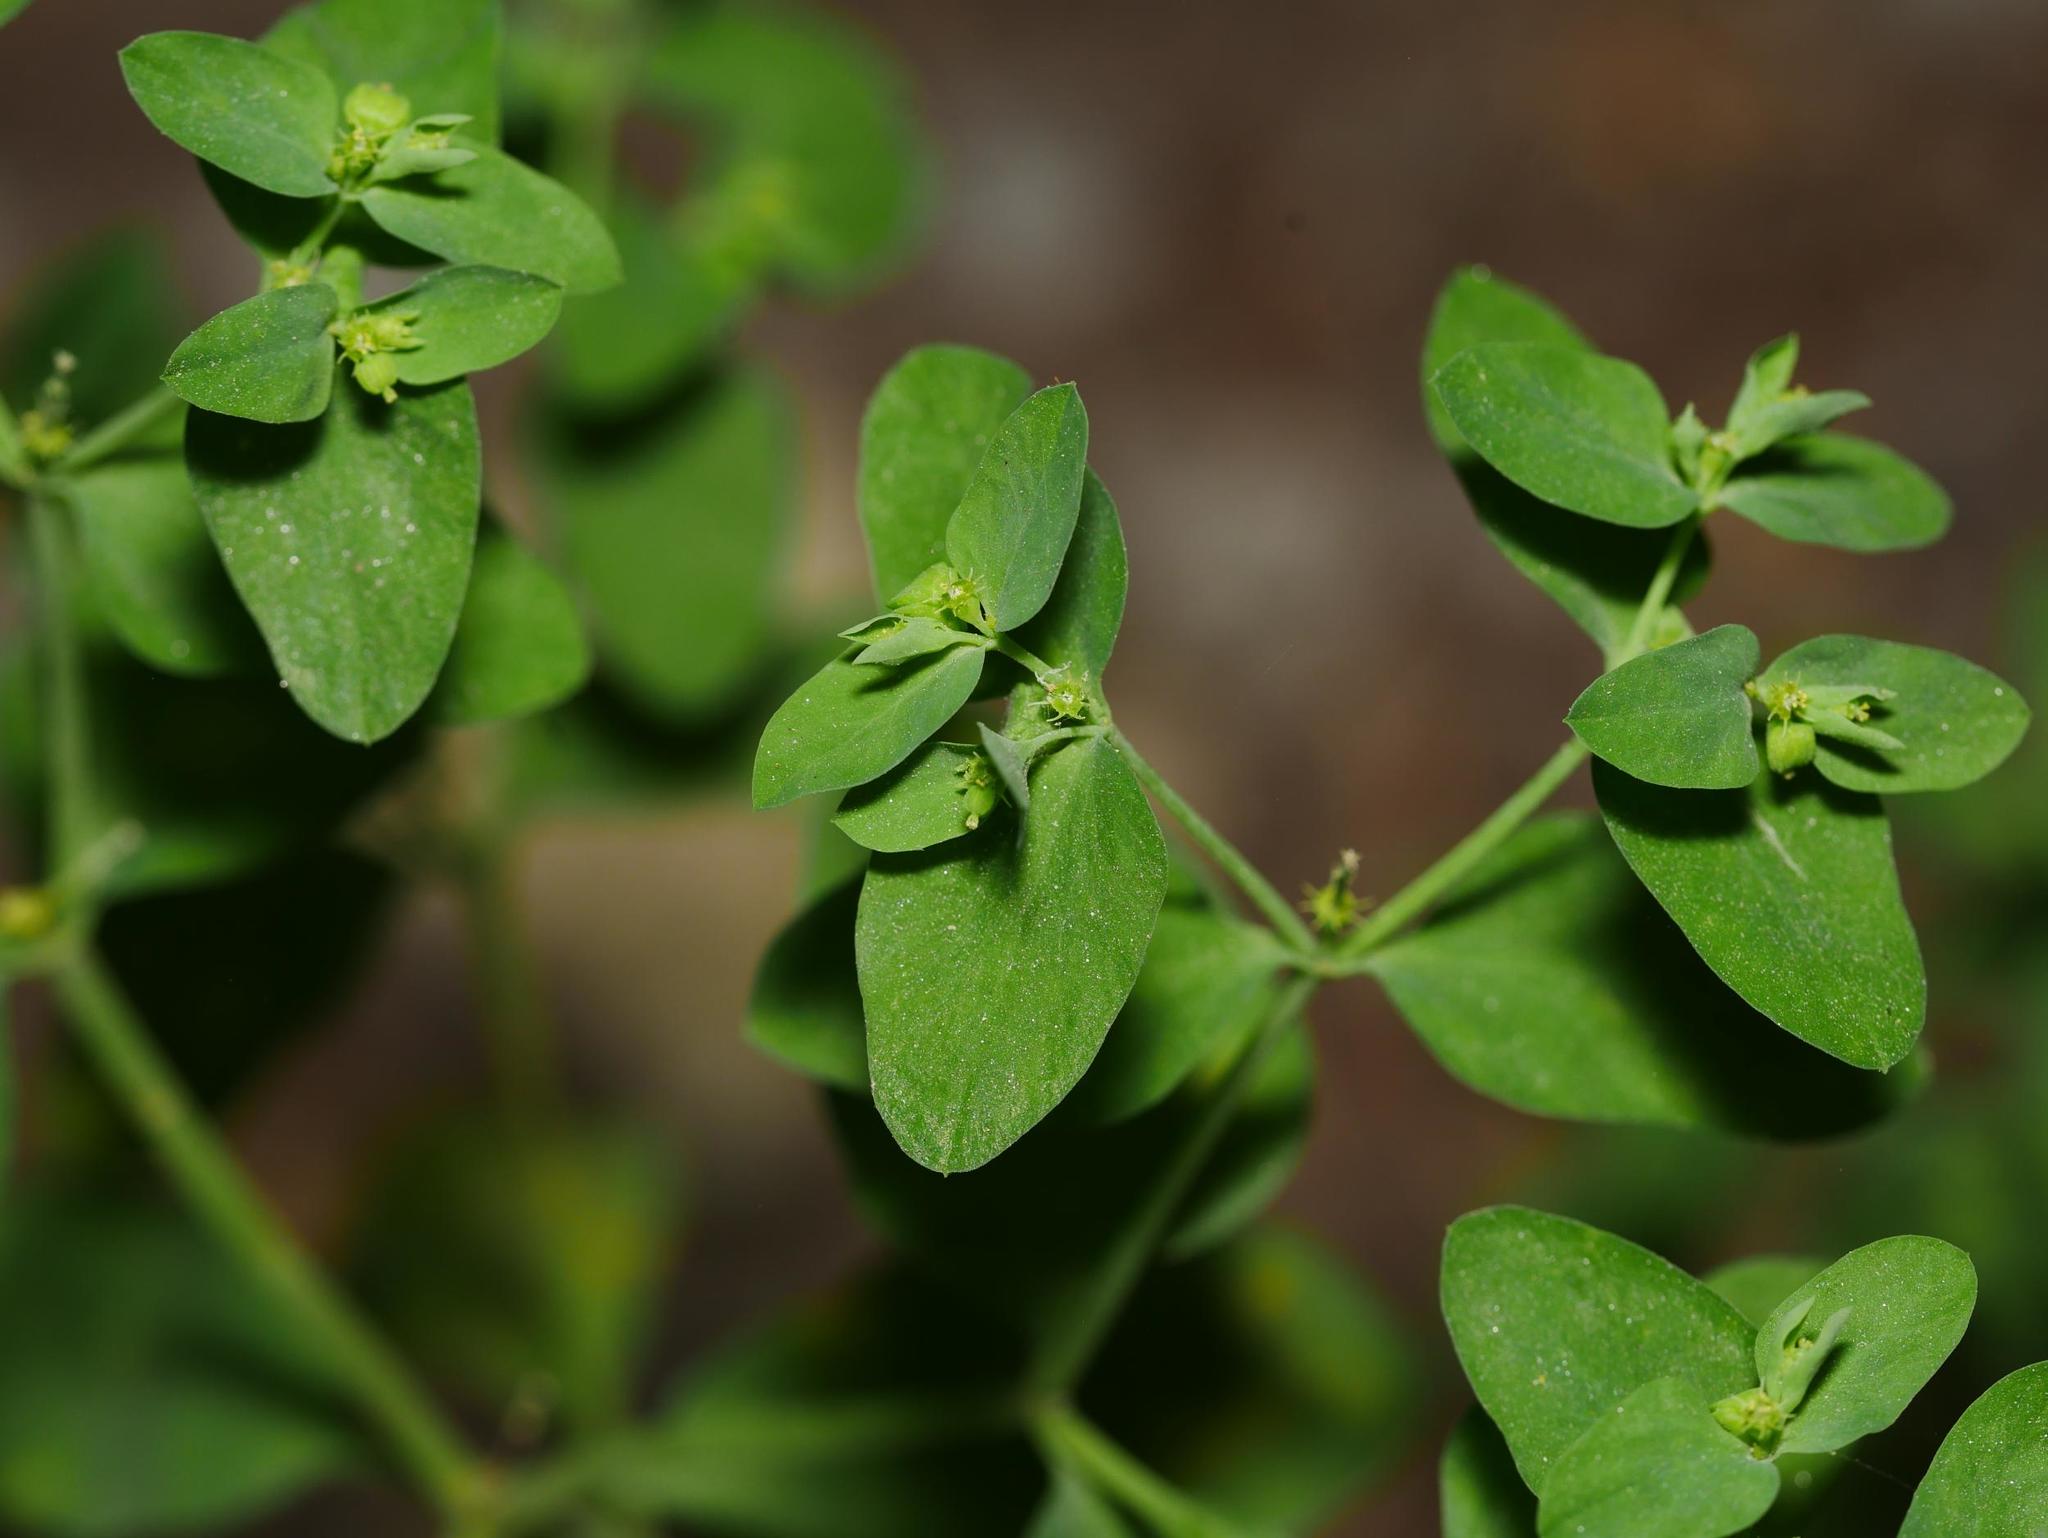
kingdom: Plantae
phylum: Tracheophyta
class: Magnoliopsida
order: Malpighiales
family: Euphorbiaceae
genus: Euphorbia
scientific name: Euphorbia peplus
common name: Petty spurge
